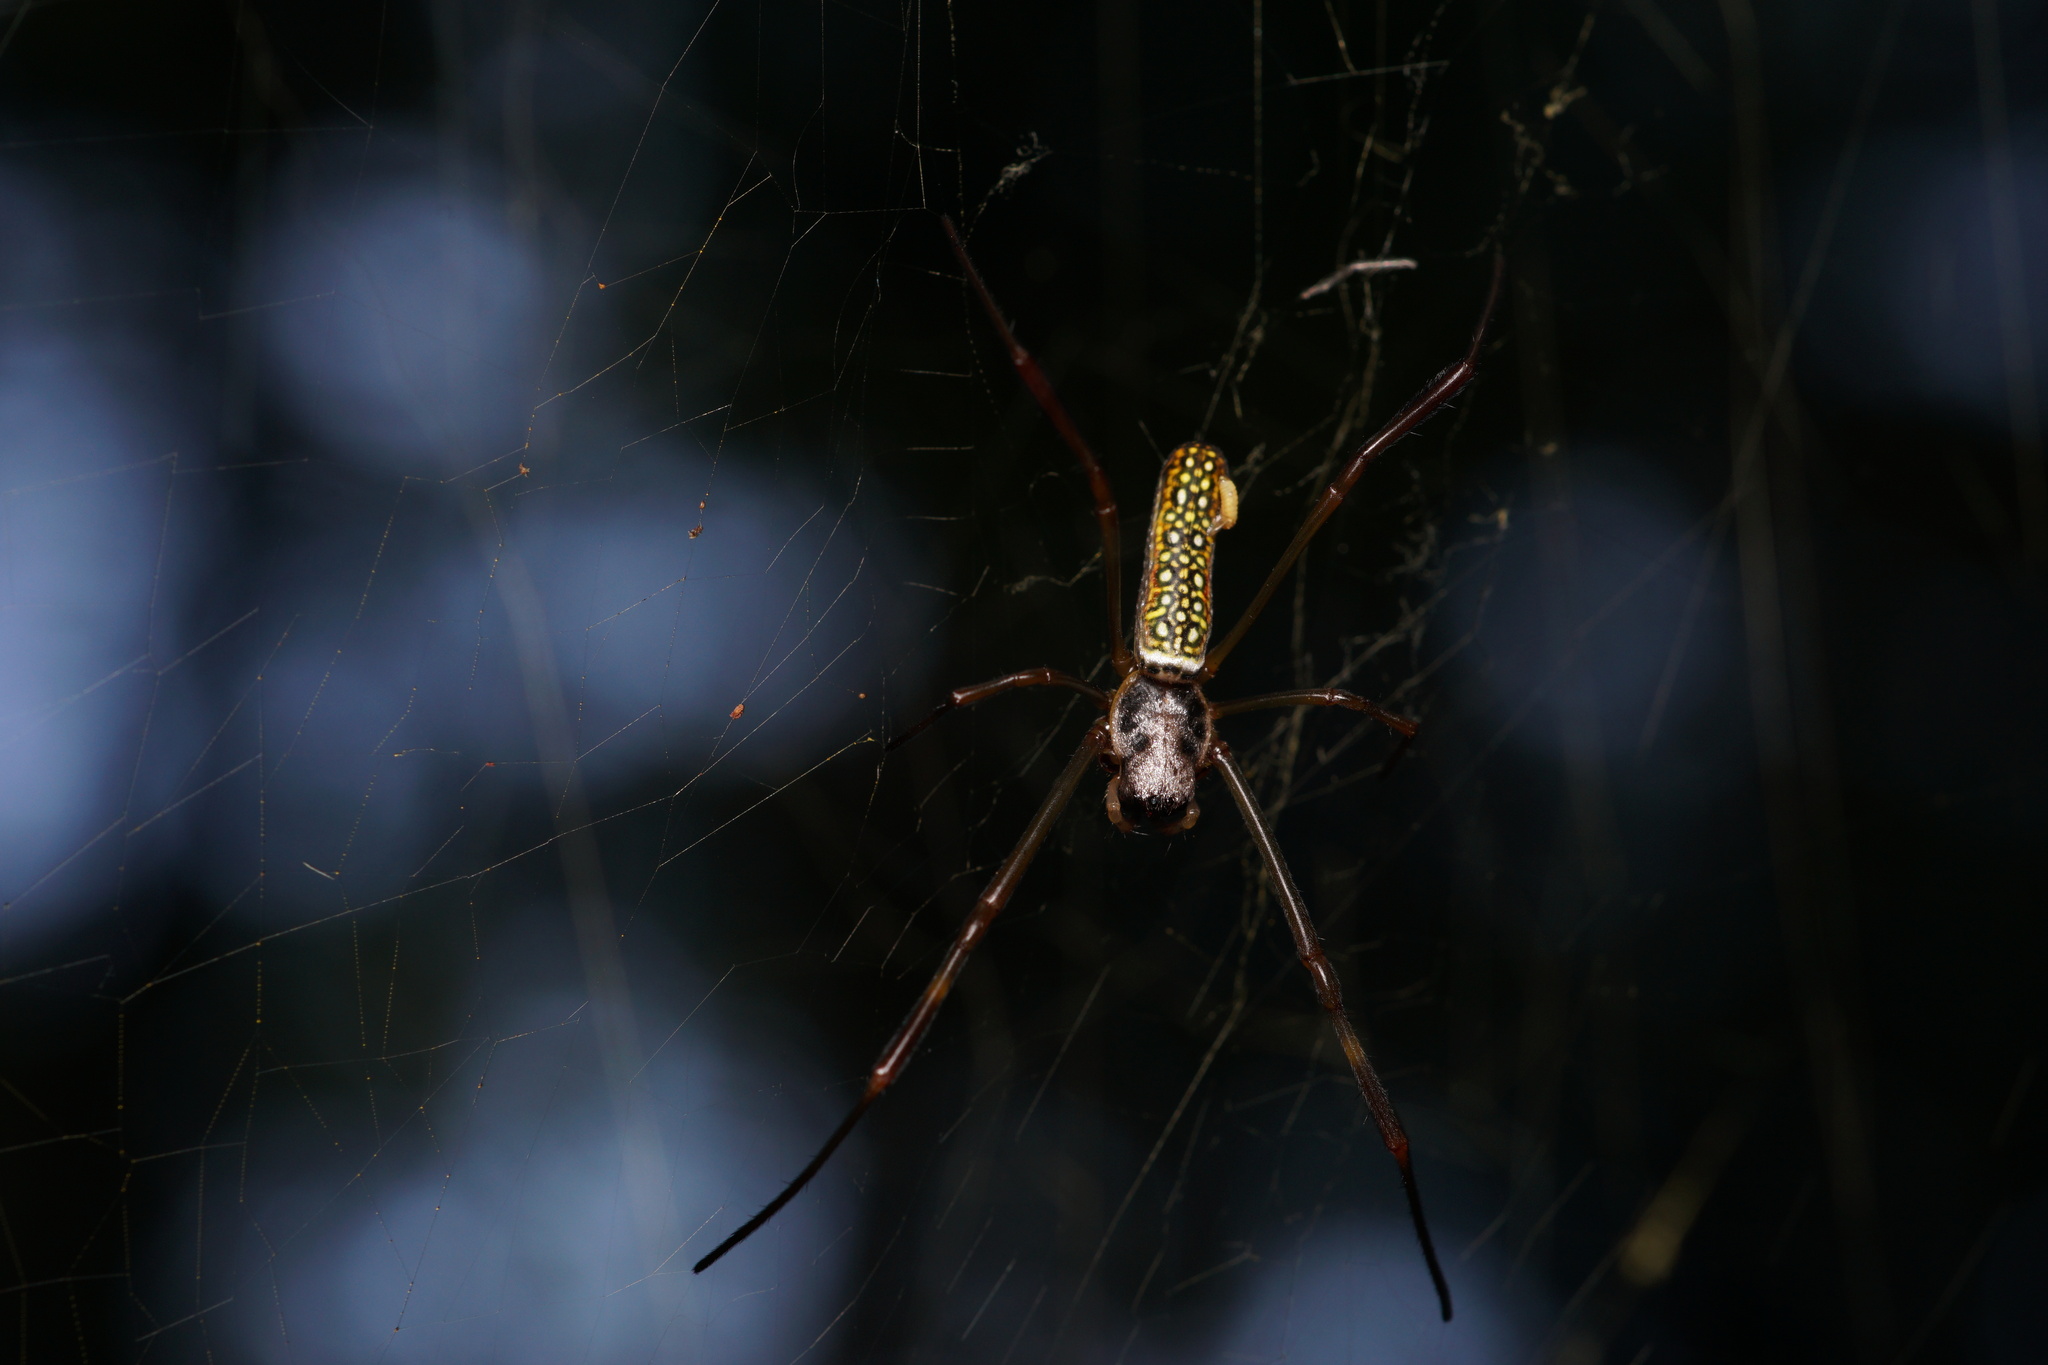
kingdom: Animalia
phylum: Arthropoda
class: Arachnida
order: Araneae
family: Araneidae
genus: Trichonephila
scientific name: Trichonephila clavipes
